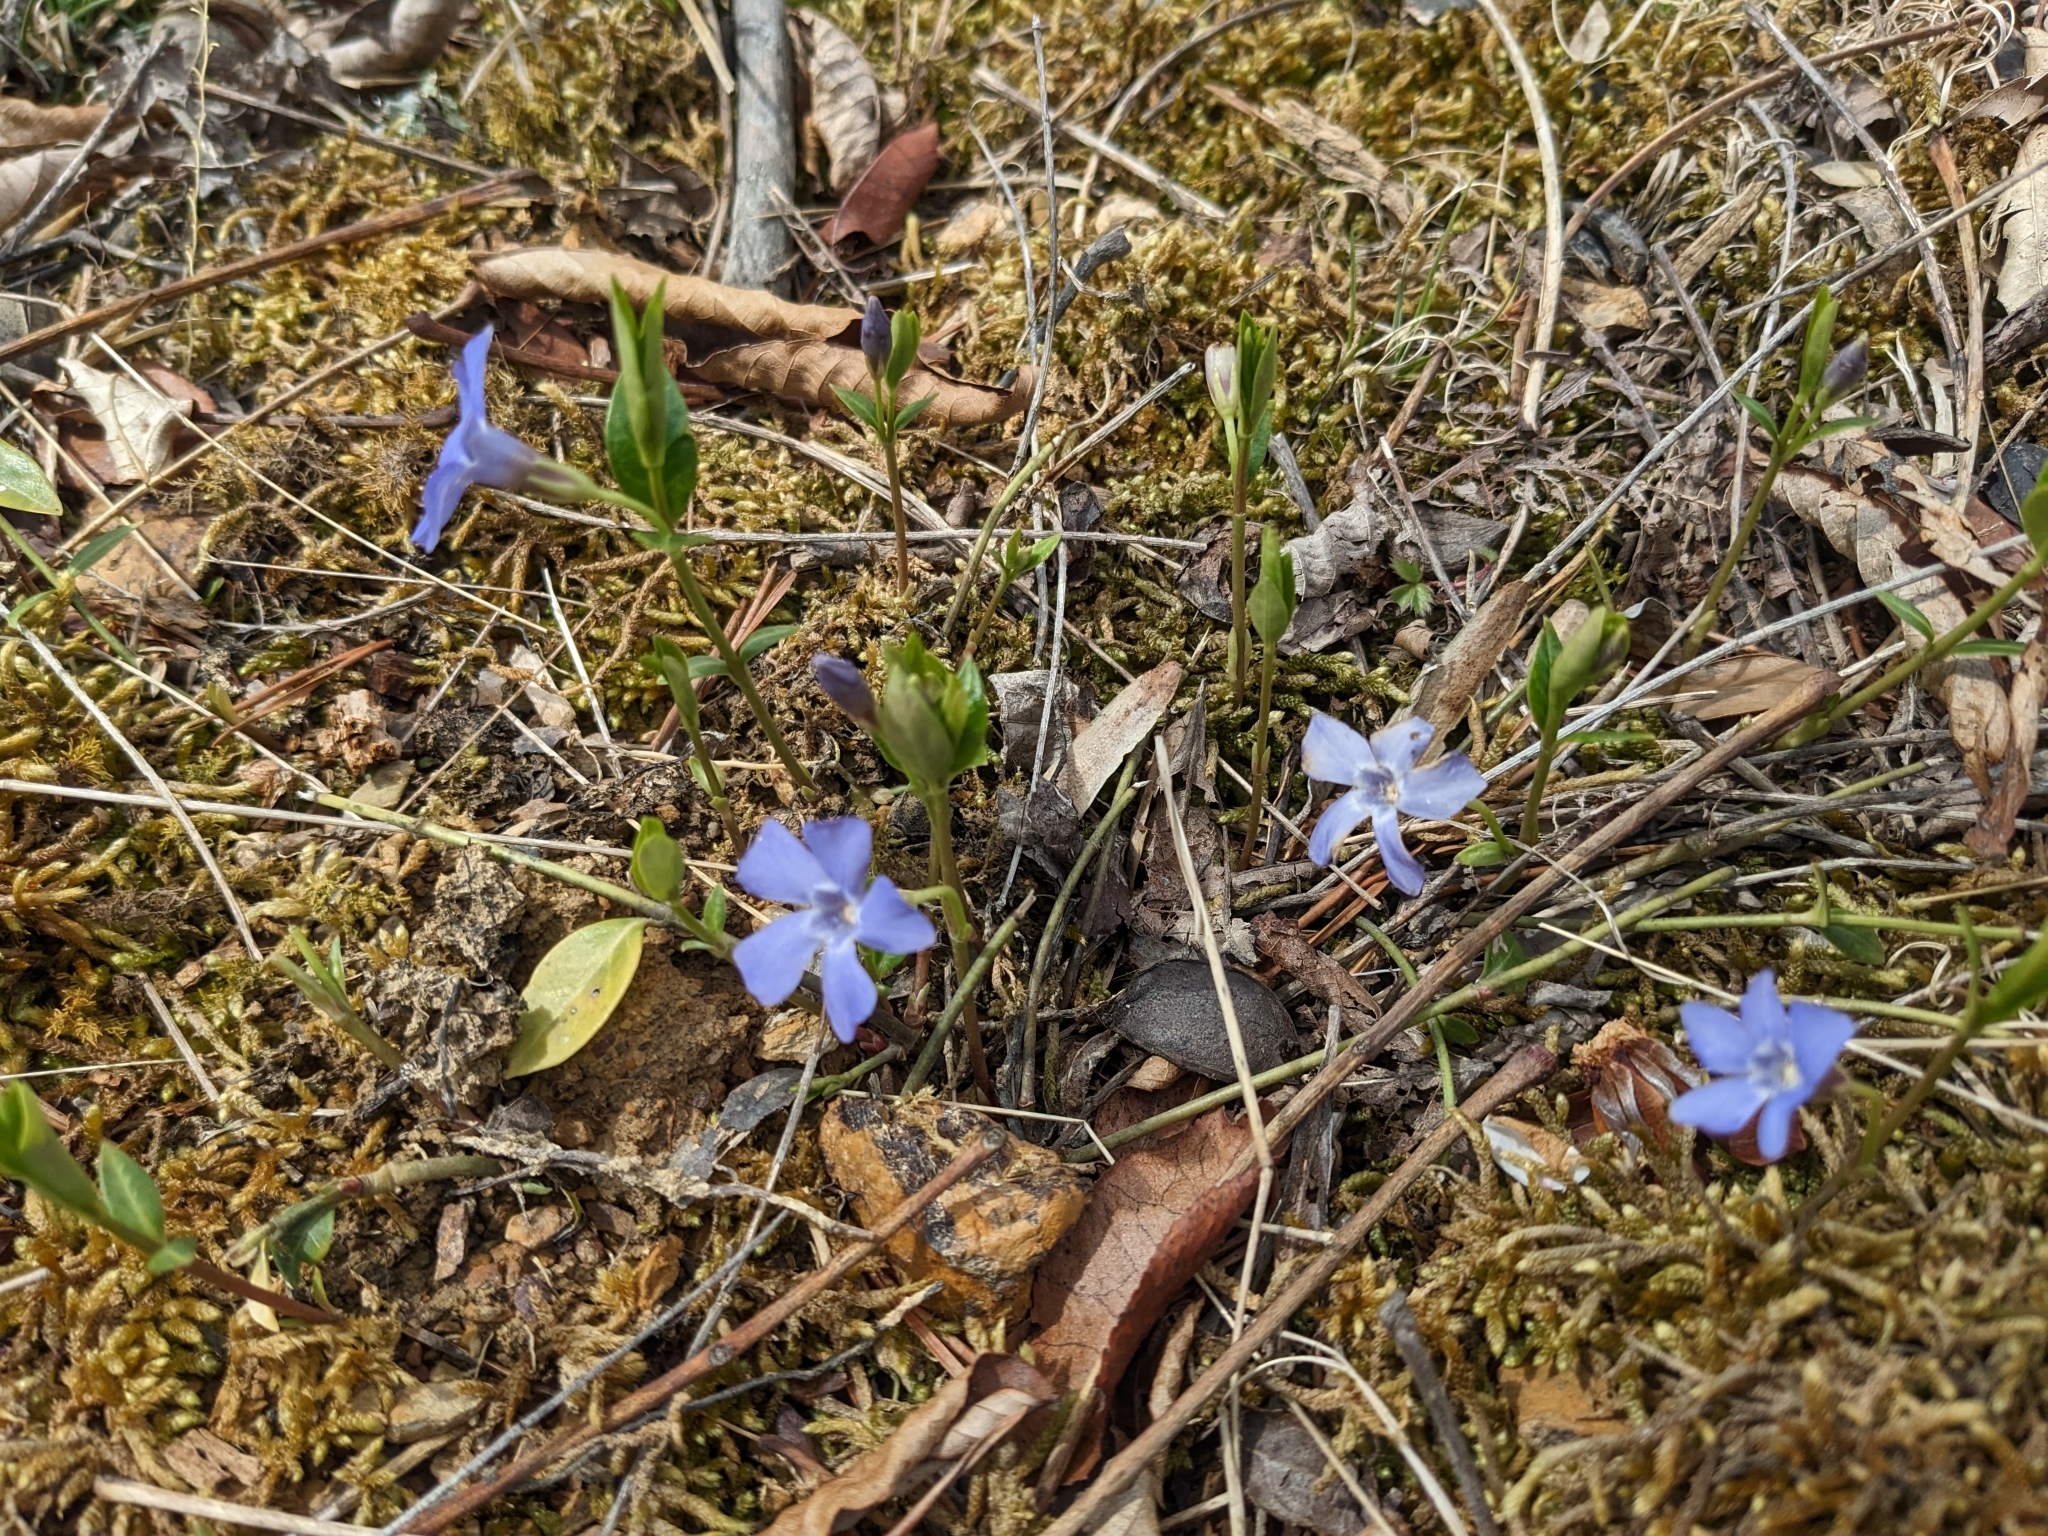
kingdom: Plantae
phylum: Tracheophyta
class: Magnoliopsida
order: Gentianales
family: Apocynaceae
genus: Vinca
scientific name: Vinca minor
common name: Lesser periwinkle
